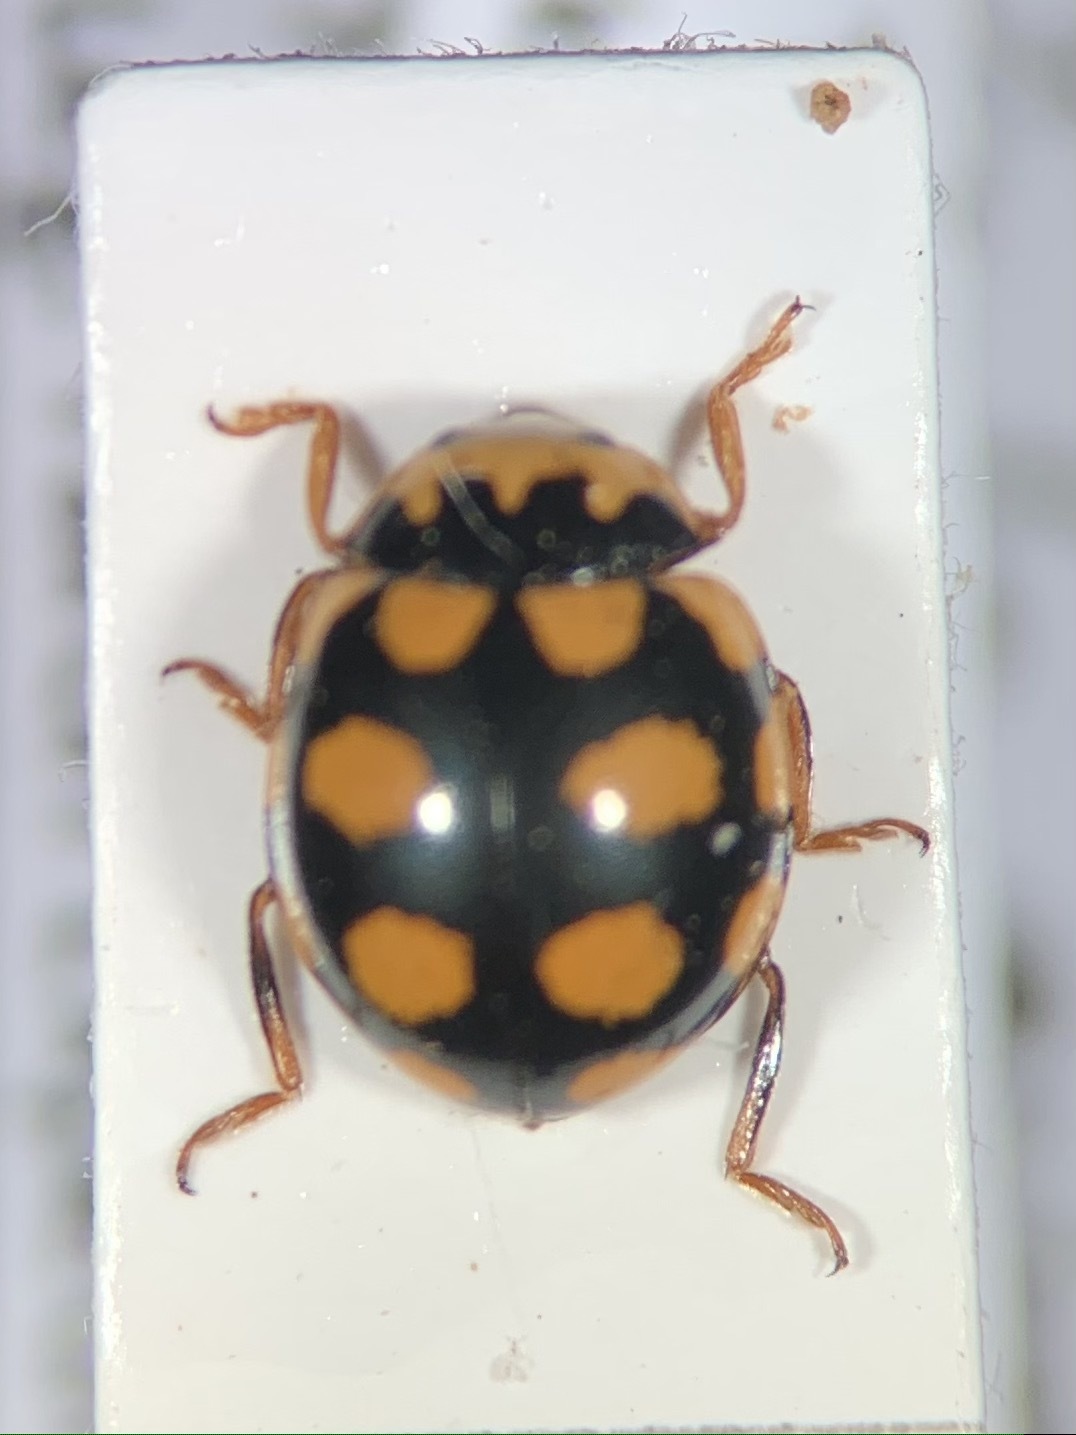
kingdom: Animalia
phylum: Arthropoda
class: Insecta
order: Coleoptera
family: Coccinellidae
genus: Coccinula
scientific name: Coccinula quatuordecimpustulata
